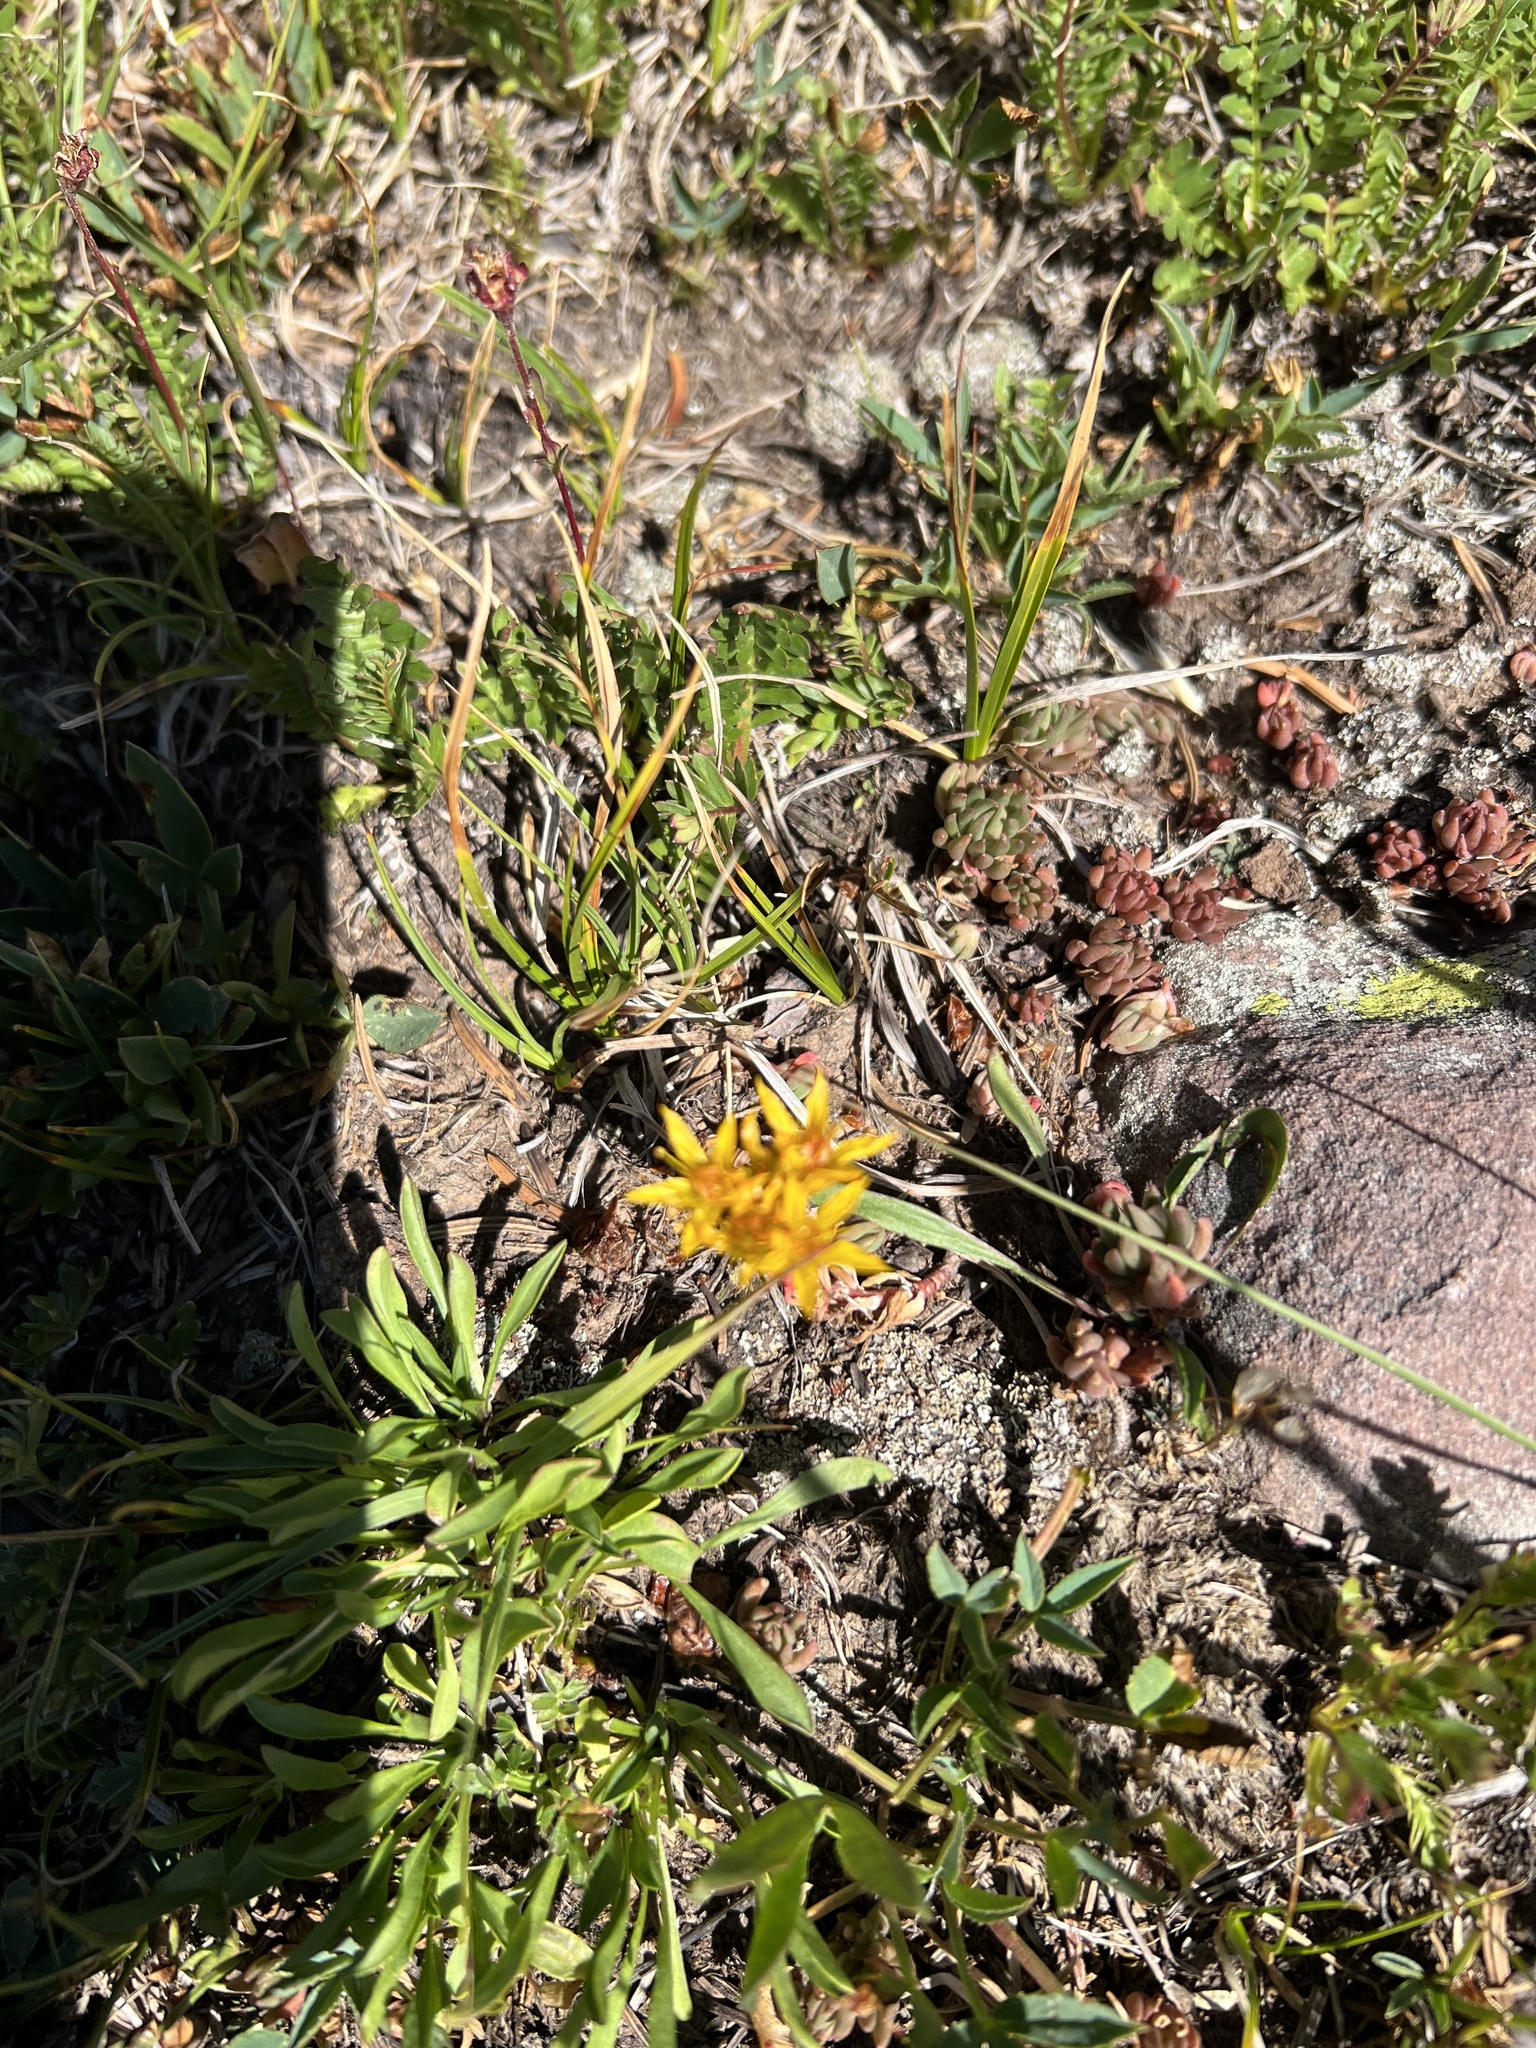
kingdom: Plantae
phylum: Tracheophyta
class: Magnoliopsida
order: Saxifragales
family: Crassulaceae
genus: Sedum
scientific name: Sedum lanceolatum
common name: Common stonecrop
